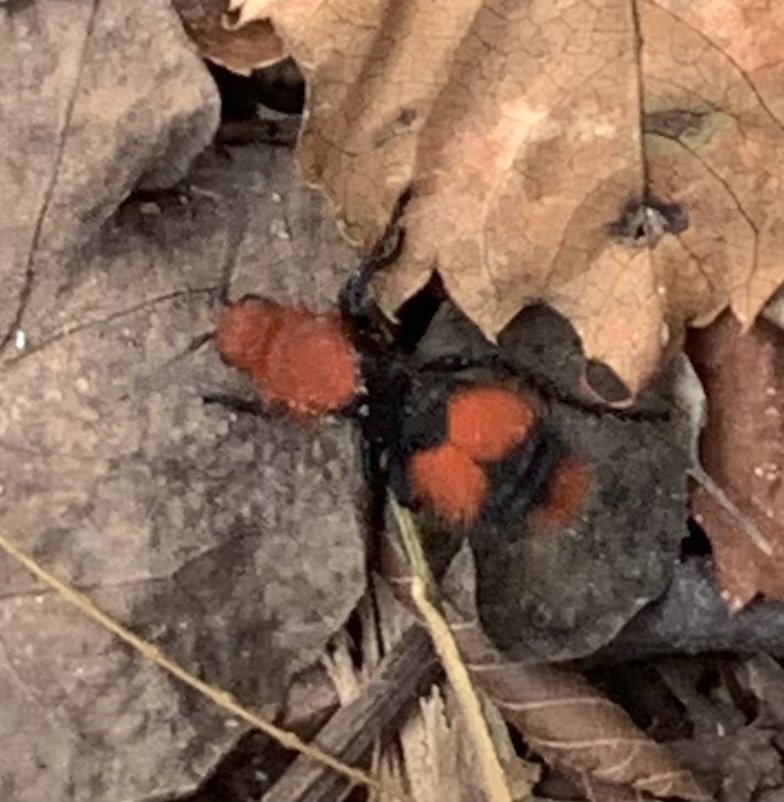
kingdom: Animalia
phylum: Arthropoda
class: Insecta
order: Hymenoptera
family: Mutillidae
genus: Dasymutilla
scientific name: Dasymutilla occidentalis
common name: Common eastern velvet ant
